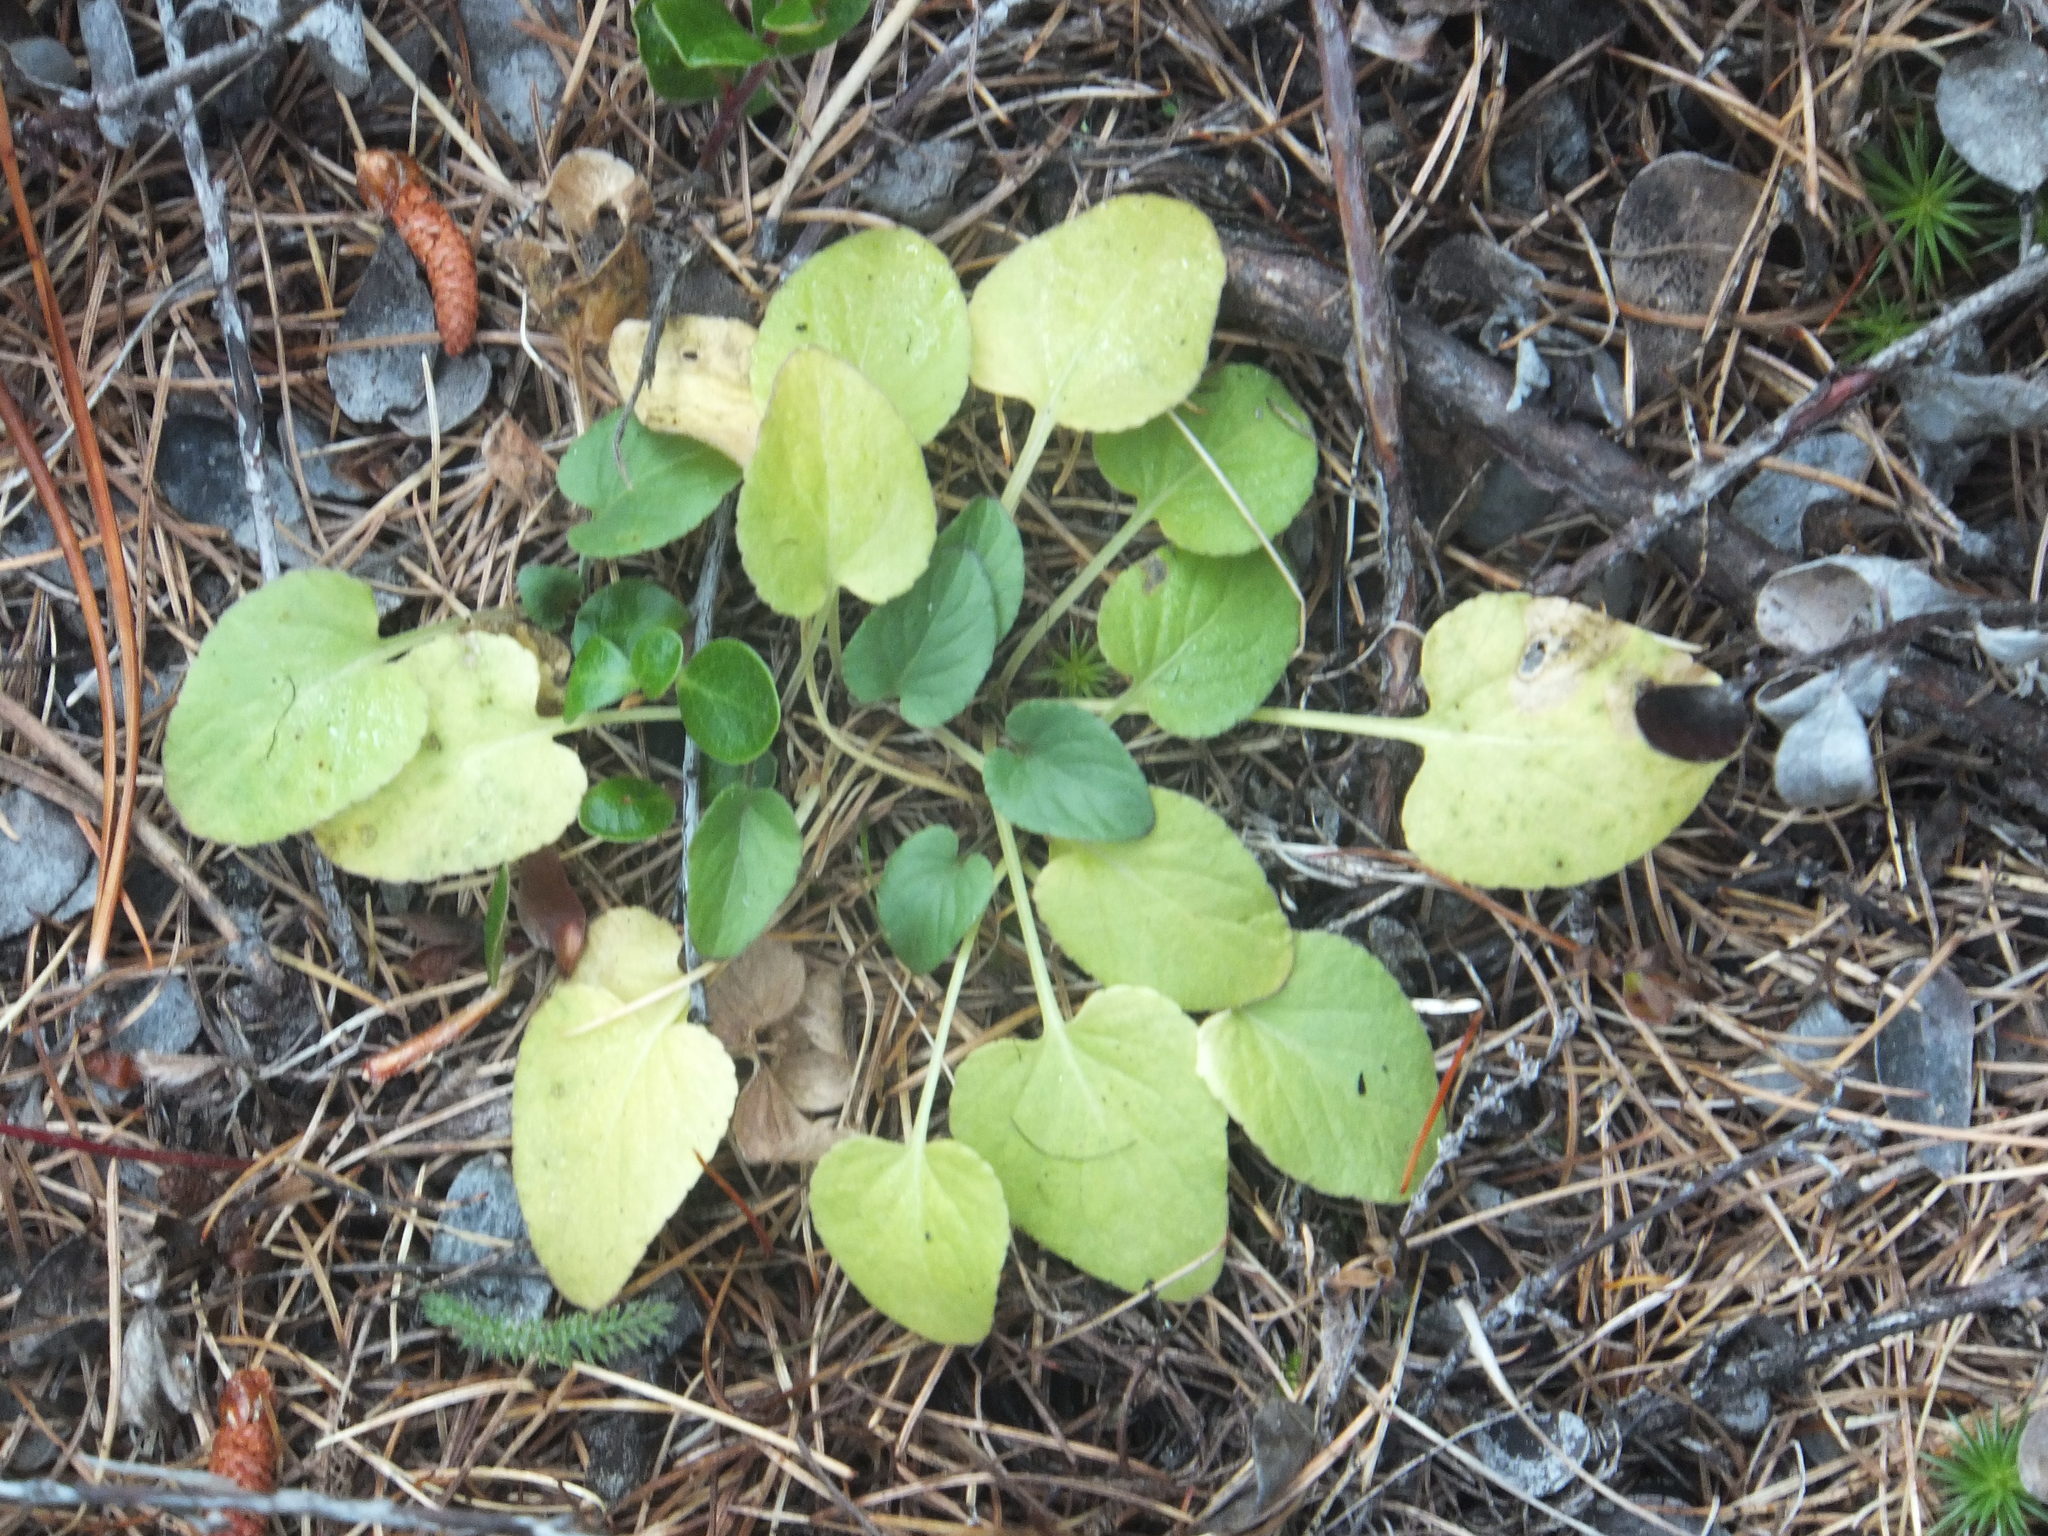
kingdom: Plantae
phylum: Tracheophyta
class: Magnoliopsida
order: Malpighiales
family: Violaceae
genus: Viola
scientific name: Viola adunca
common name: Sand violet
